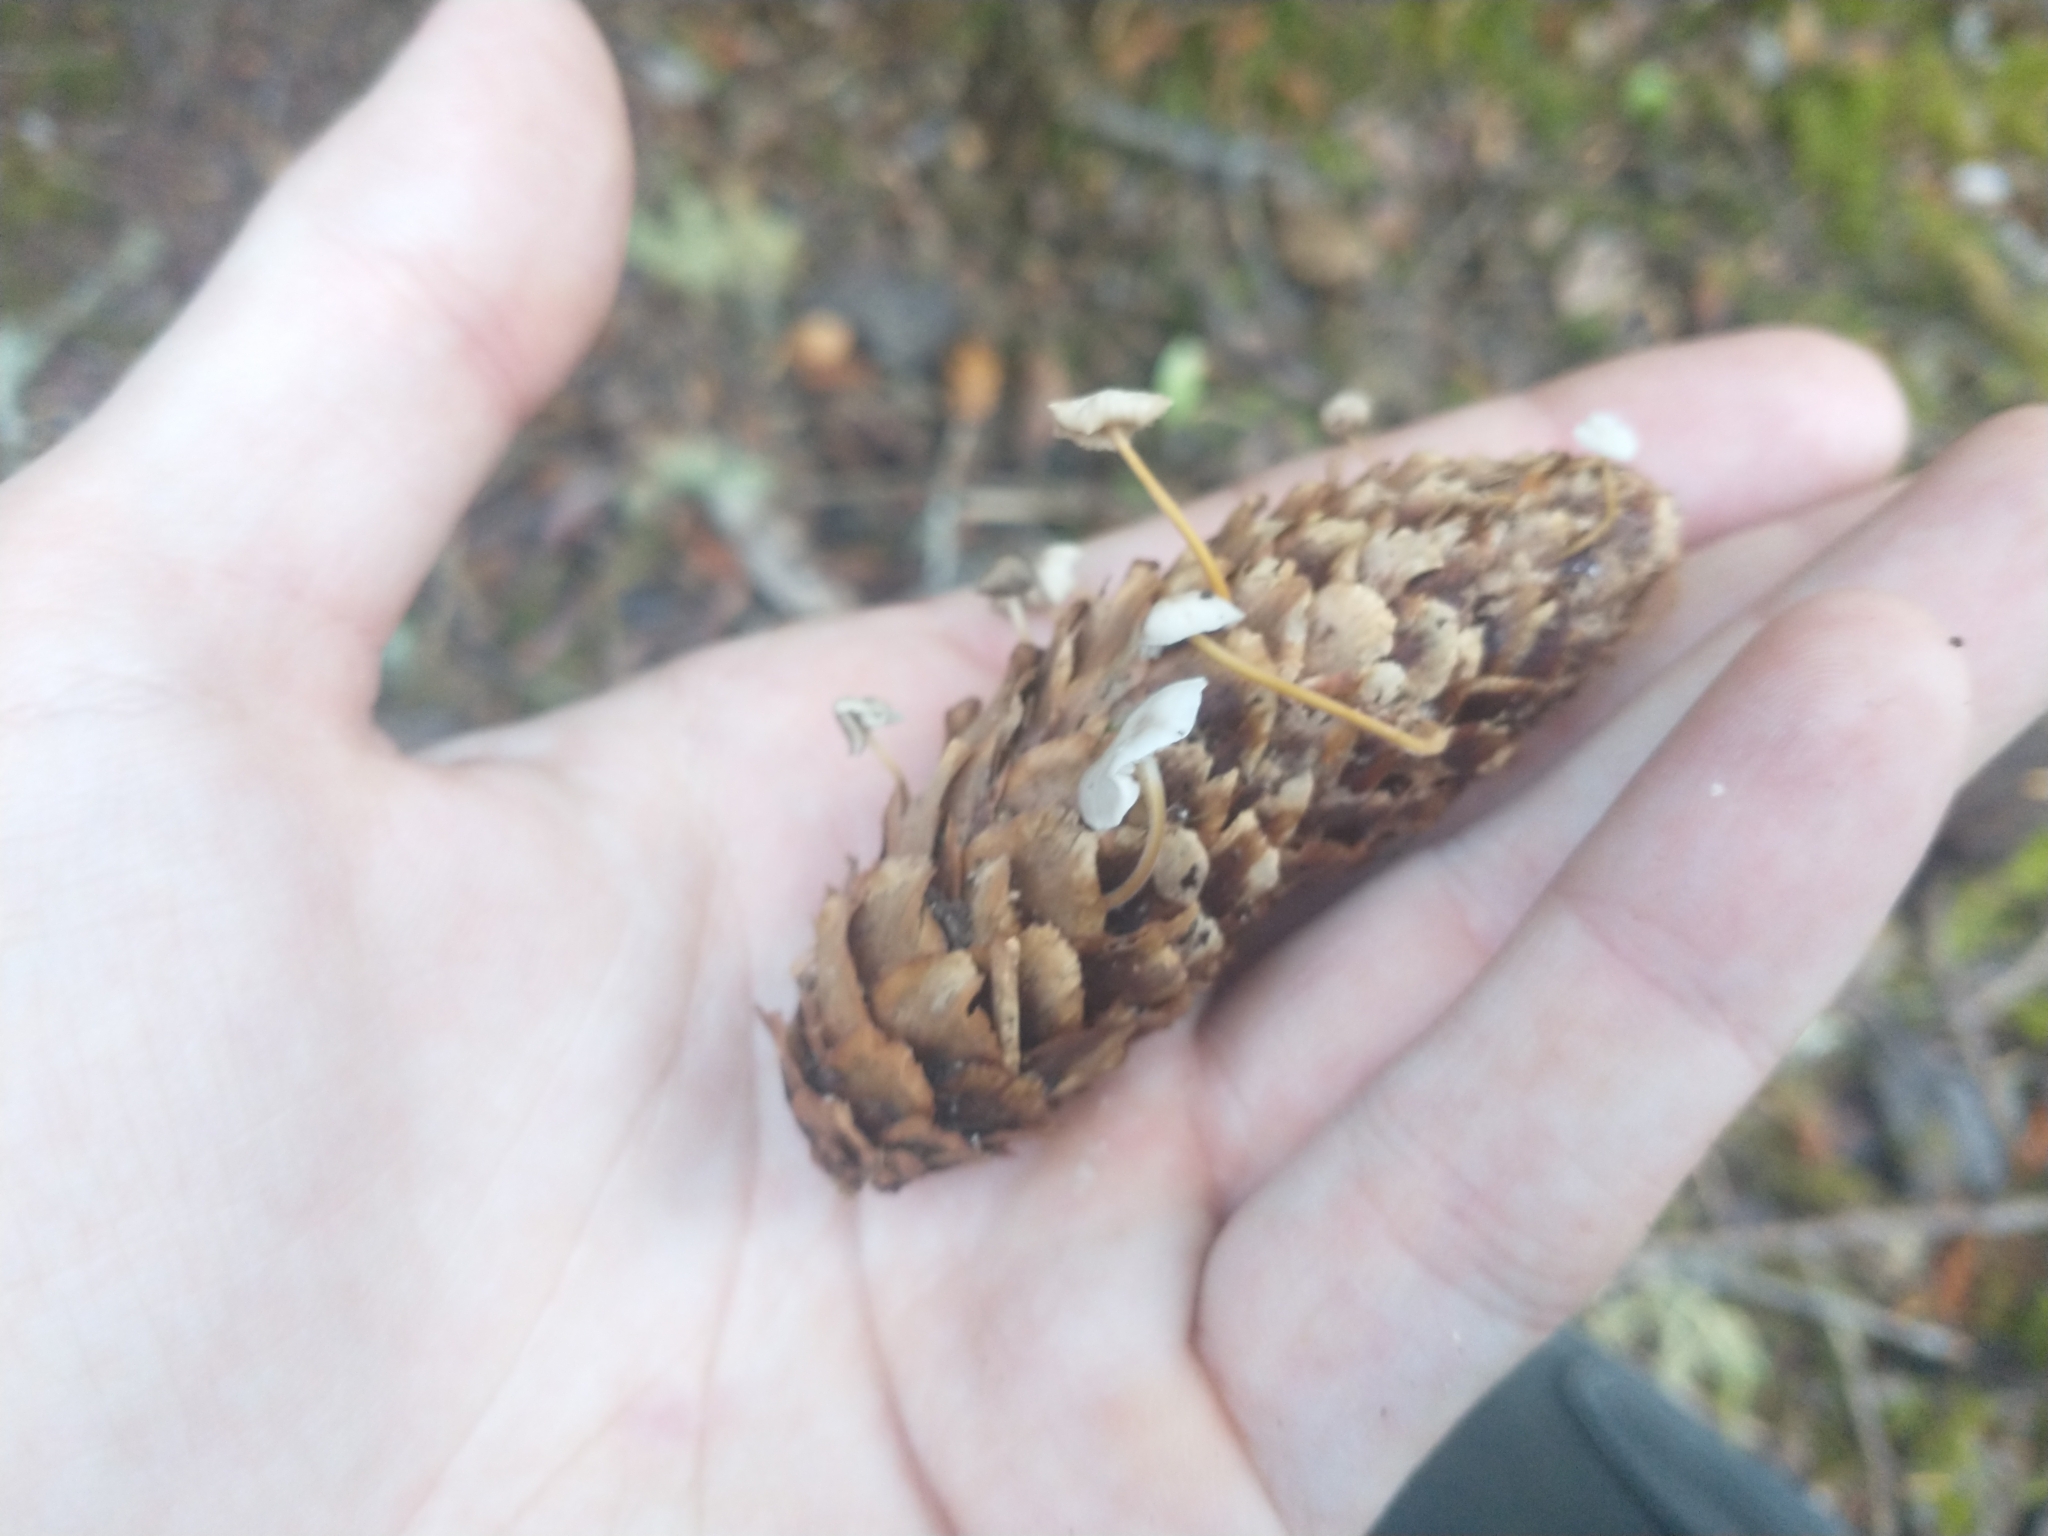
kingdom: Fungi
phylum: Basidiomycota
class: Agaricomycetes
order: Agaricales
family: Physalacriaceae
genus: Strobilurus
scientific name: Strobilurus occidentalis
